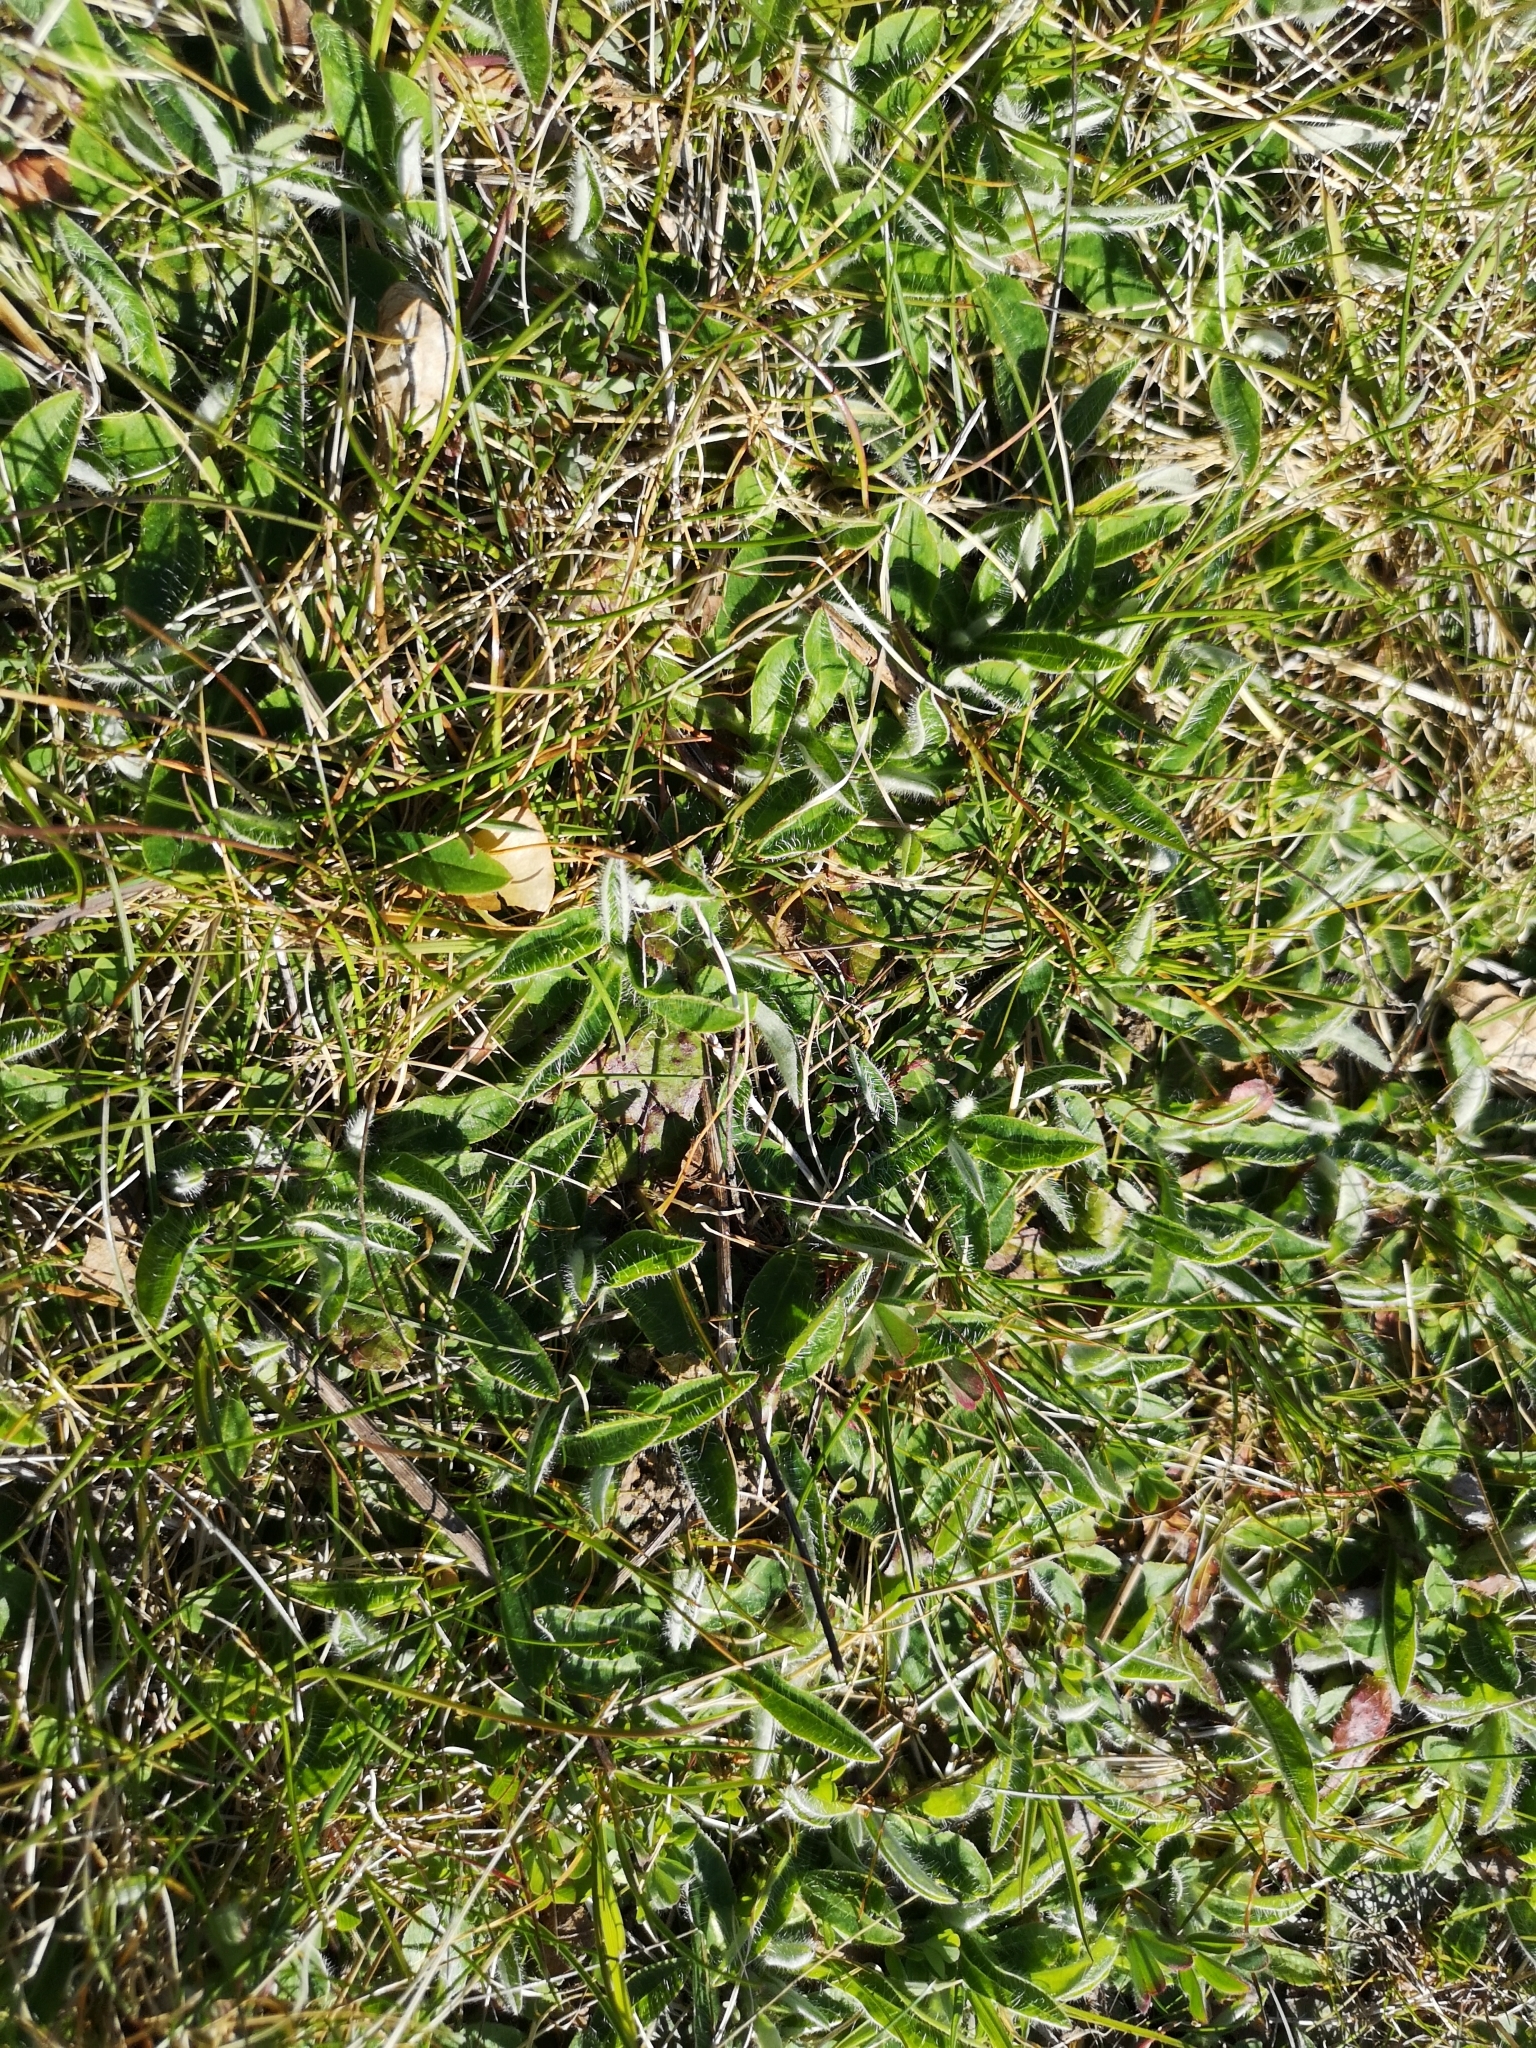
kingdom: Plantae
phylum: Tracheophyta
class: Magnoliopsida
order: Asterales
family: Asteraceae
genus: Pilosella
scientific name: Pilosella officinarum
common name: Mouse-ear hawkweed
